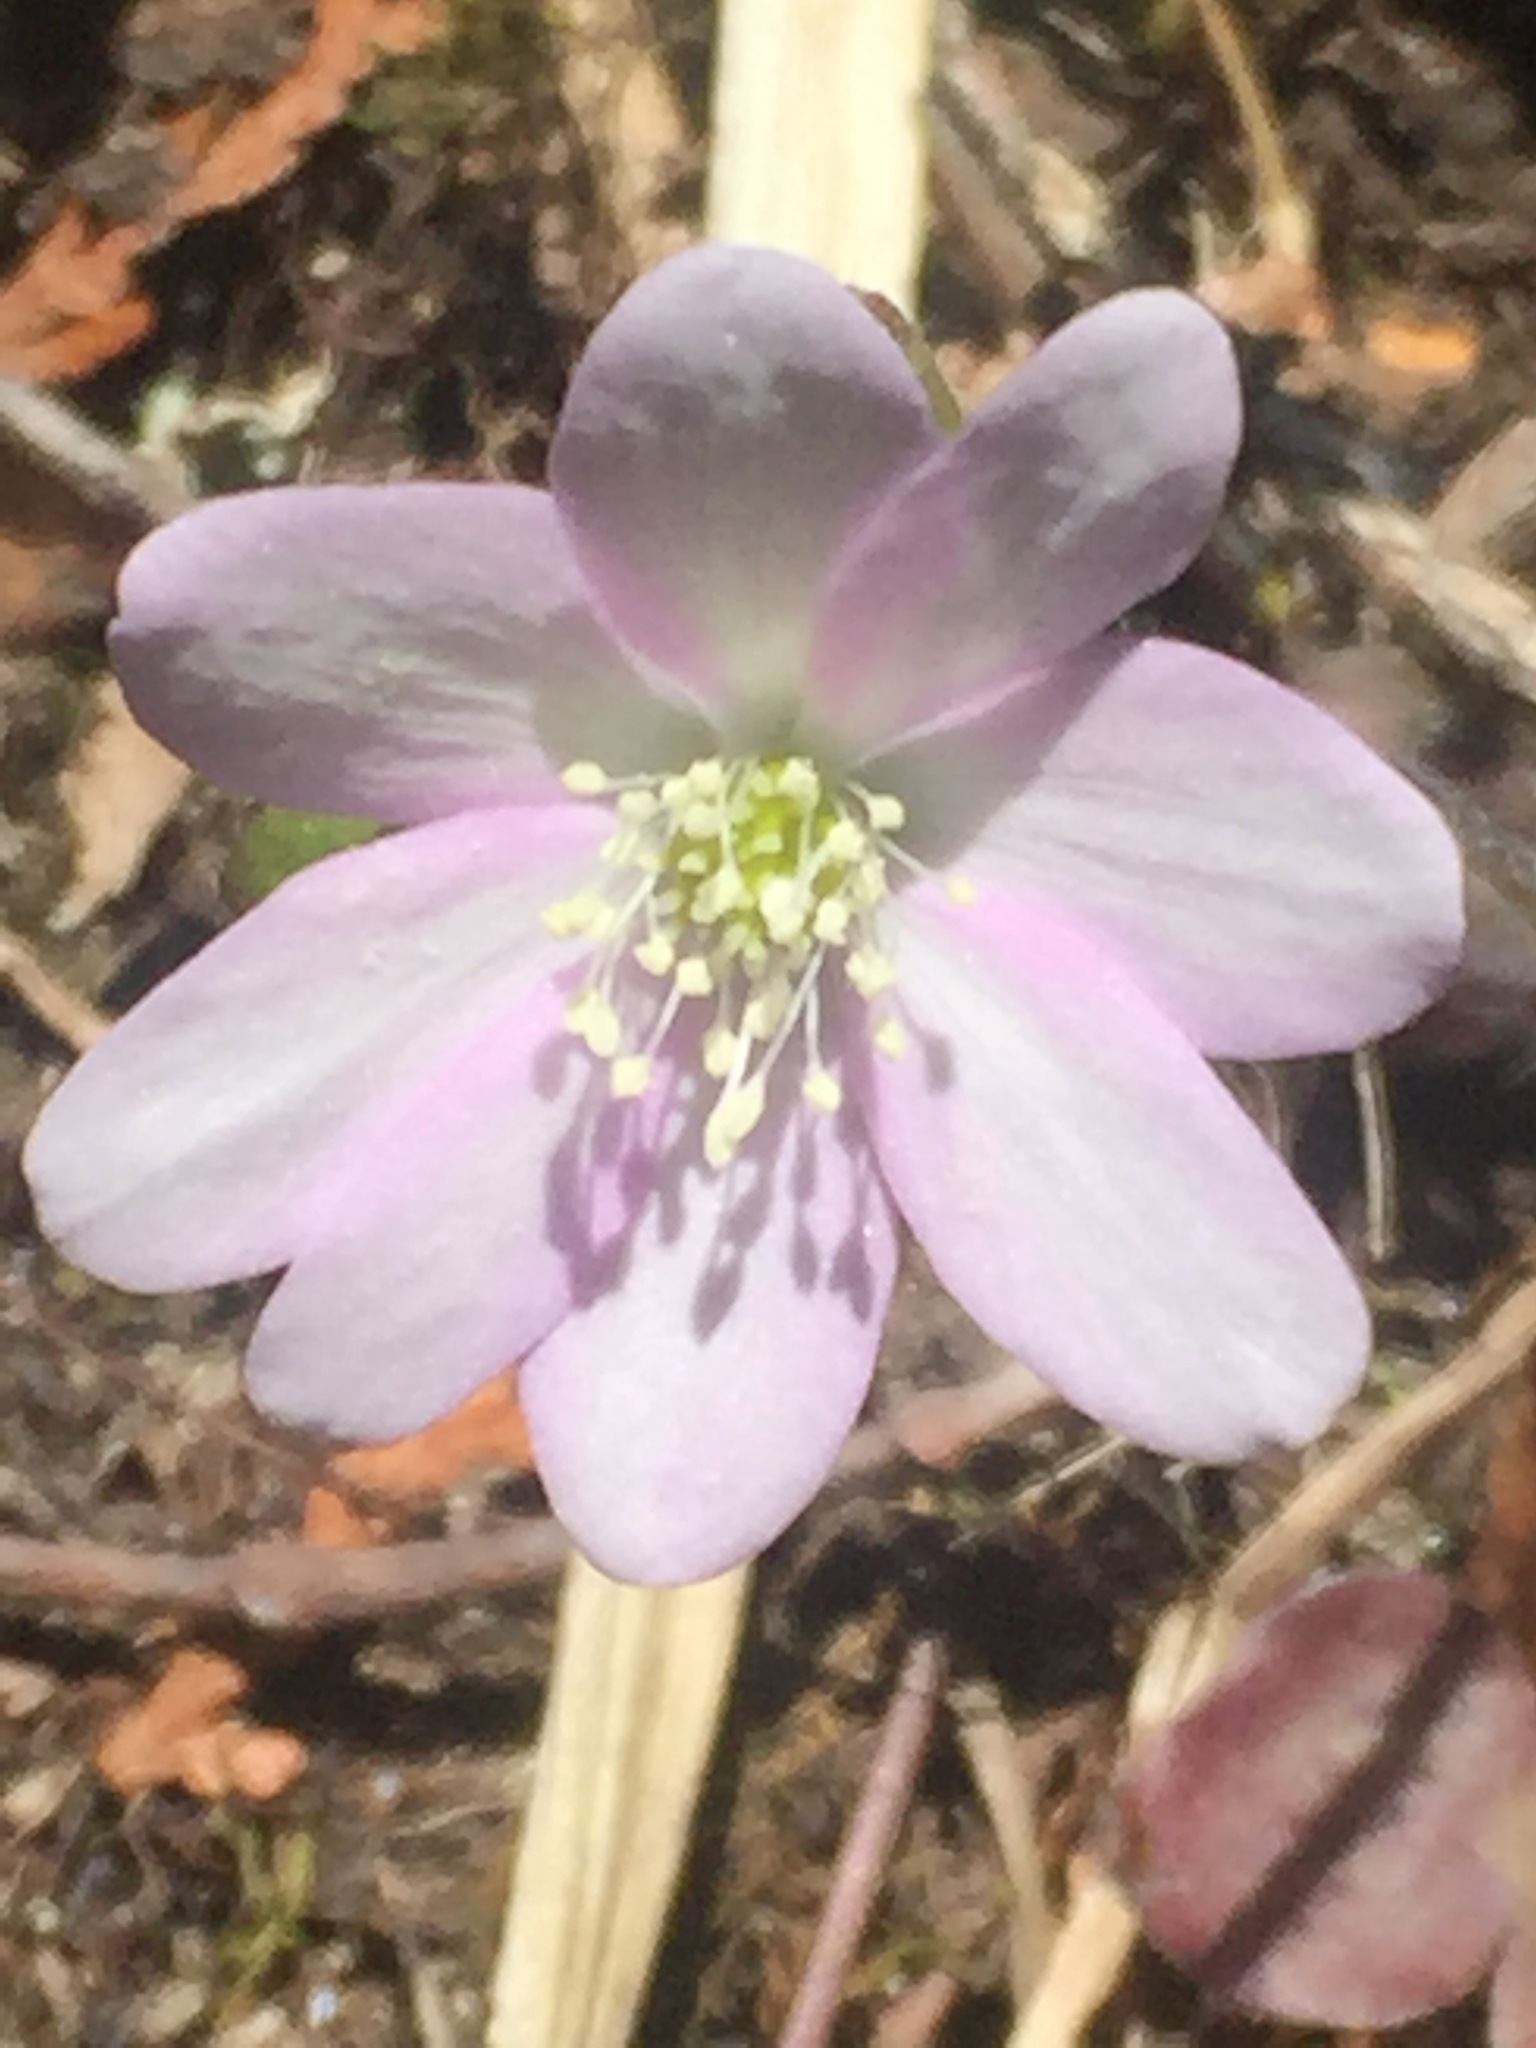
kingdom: Plantae
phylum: Tracheophyta
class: Magnoliopsida
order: Ranunculales
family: Ranunculaceae
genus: Hepatica
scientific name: Hepatica acutiloba
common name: Sharp-lobed hepatica
